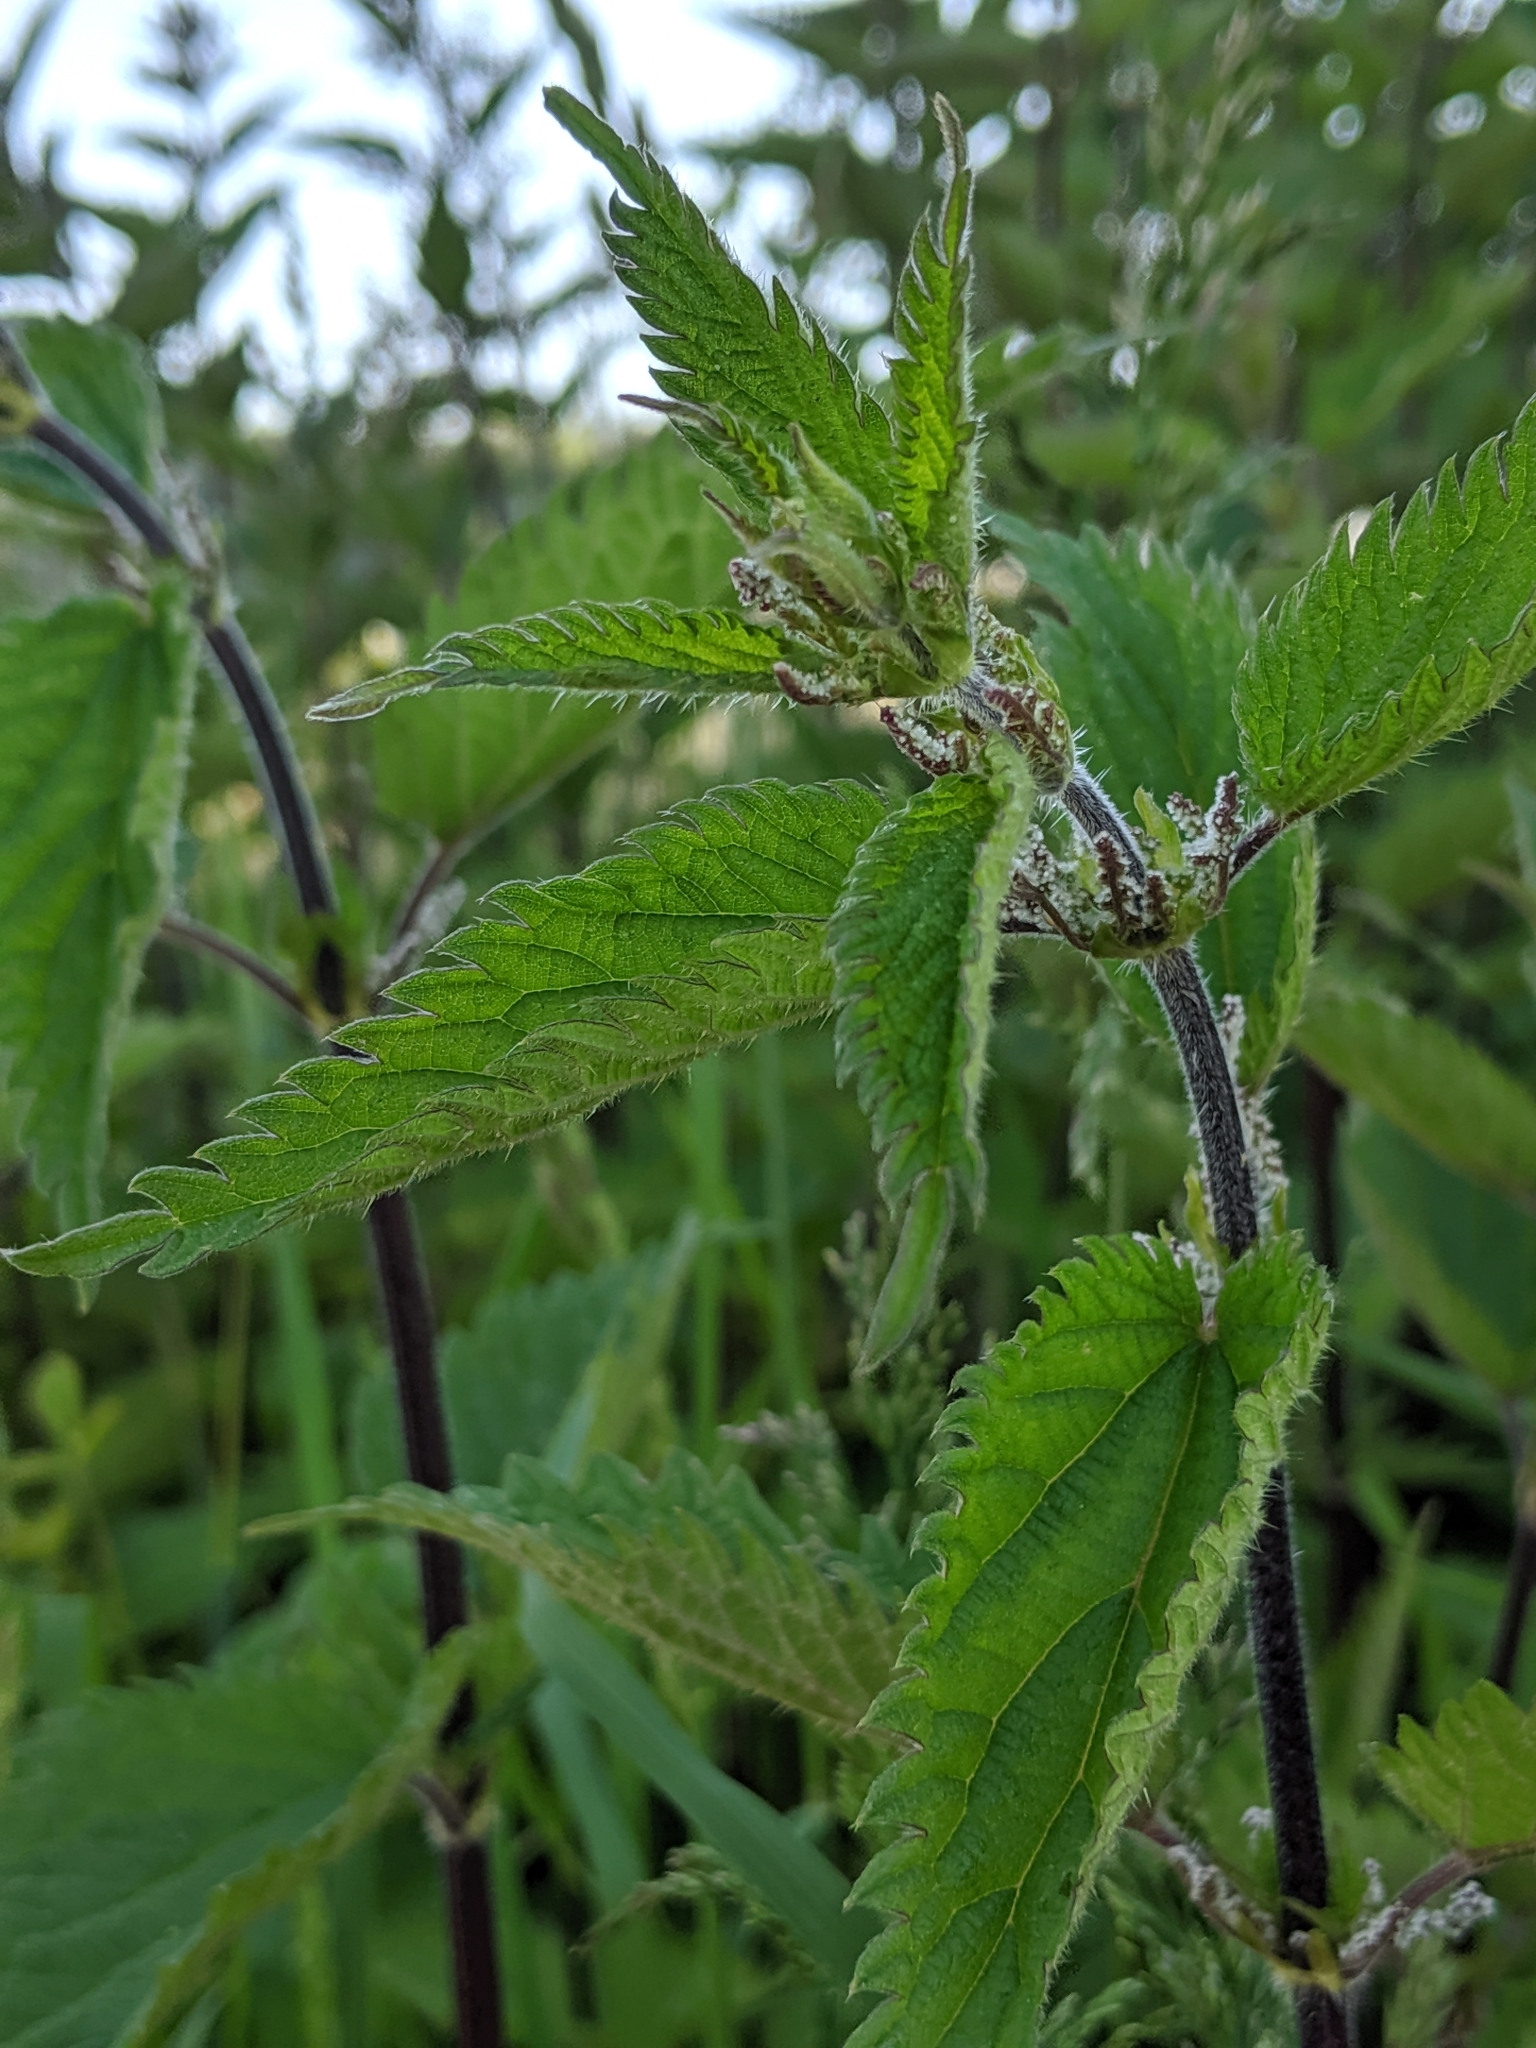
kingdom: Plantae
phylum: Tracheophyta
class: Magnoliopsida
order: Rosales
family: Urticaceae
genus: Urtica
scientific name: Urtica dioica
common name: Common nettle
